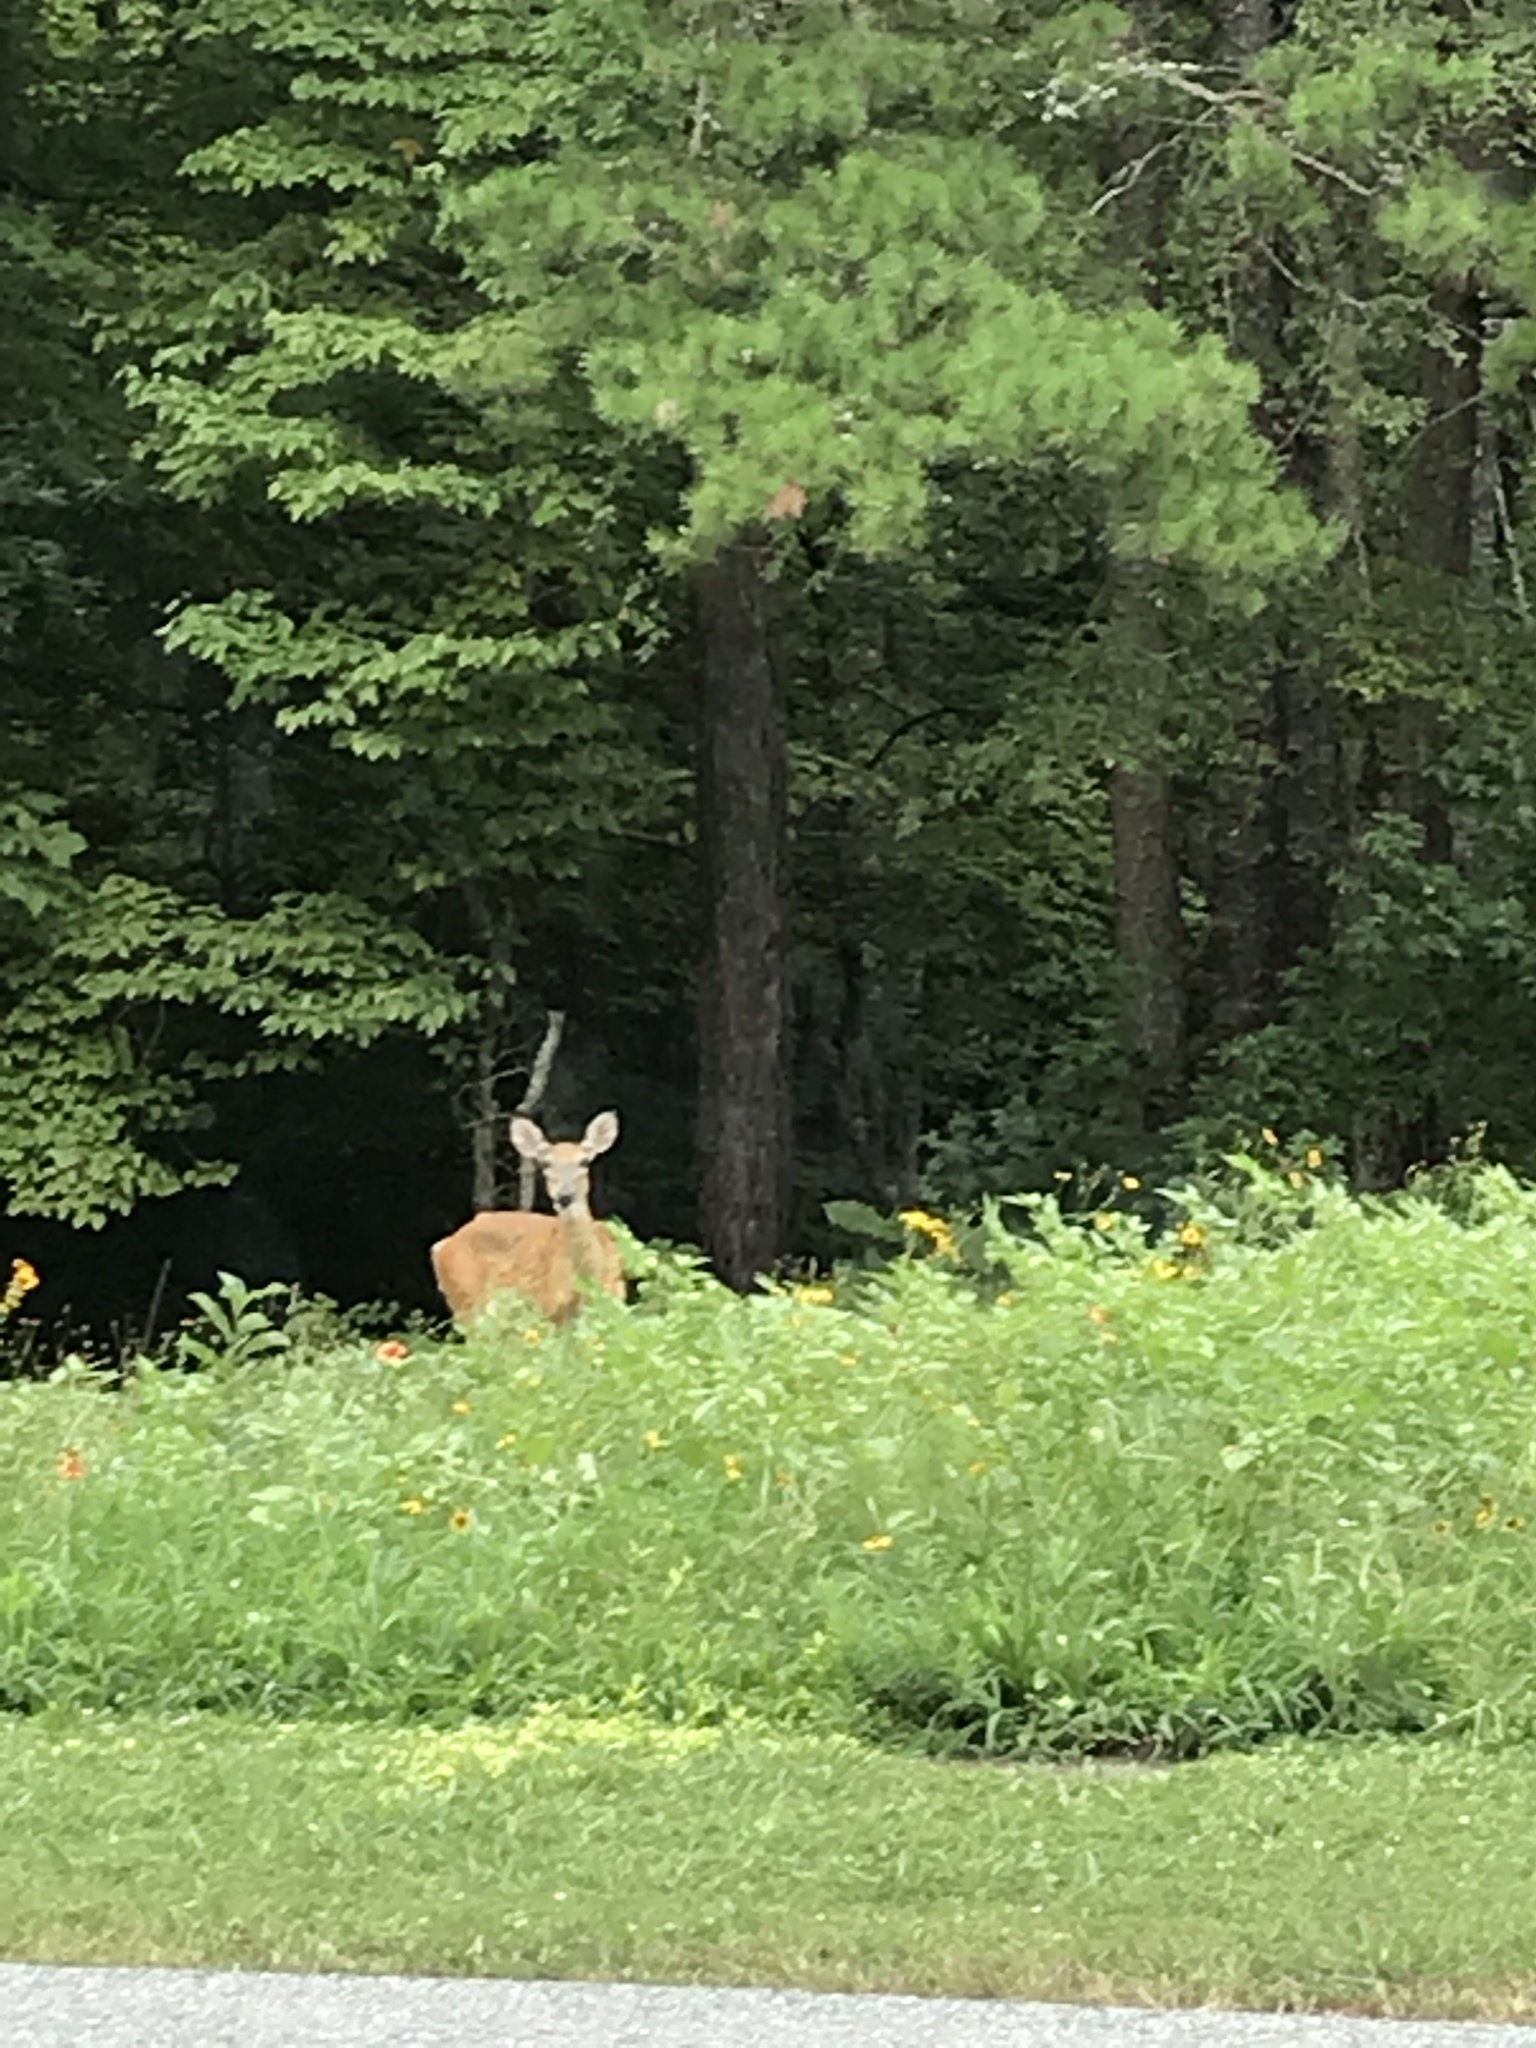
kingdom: Animalia
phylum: Chordata
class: Mammalia
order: Artiodactyla
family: Cervidae
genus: Odocoileus
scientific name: Odocoileus virginianus
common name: White-tailed deer
